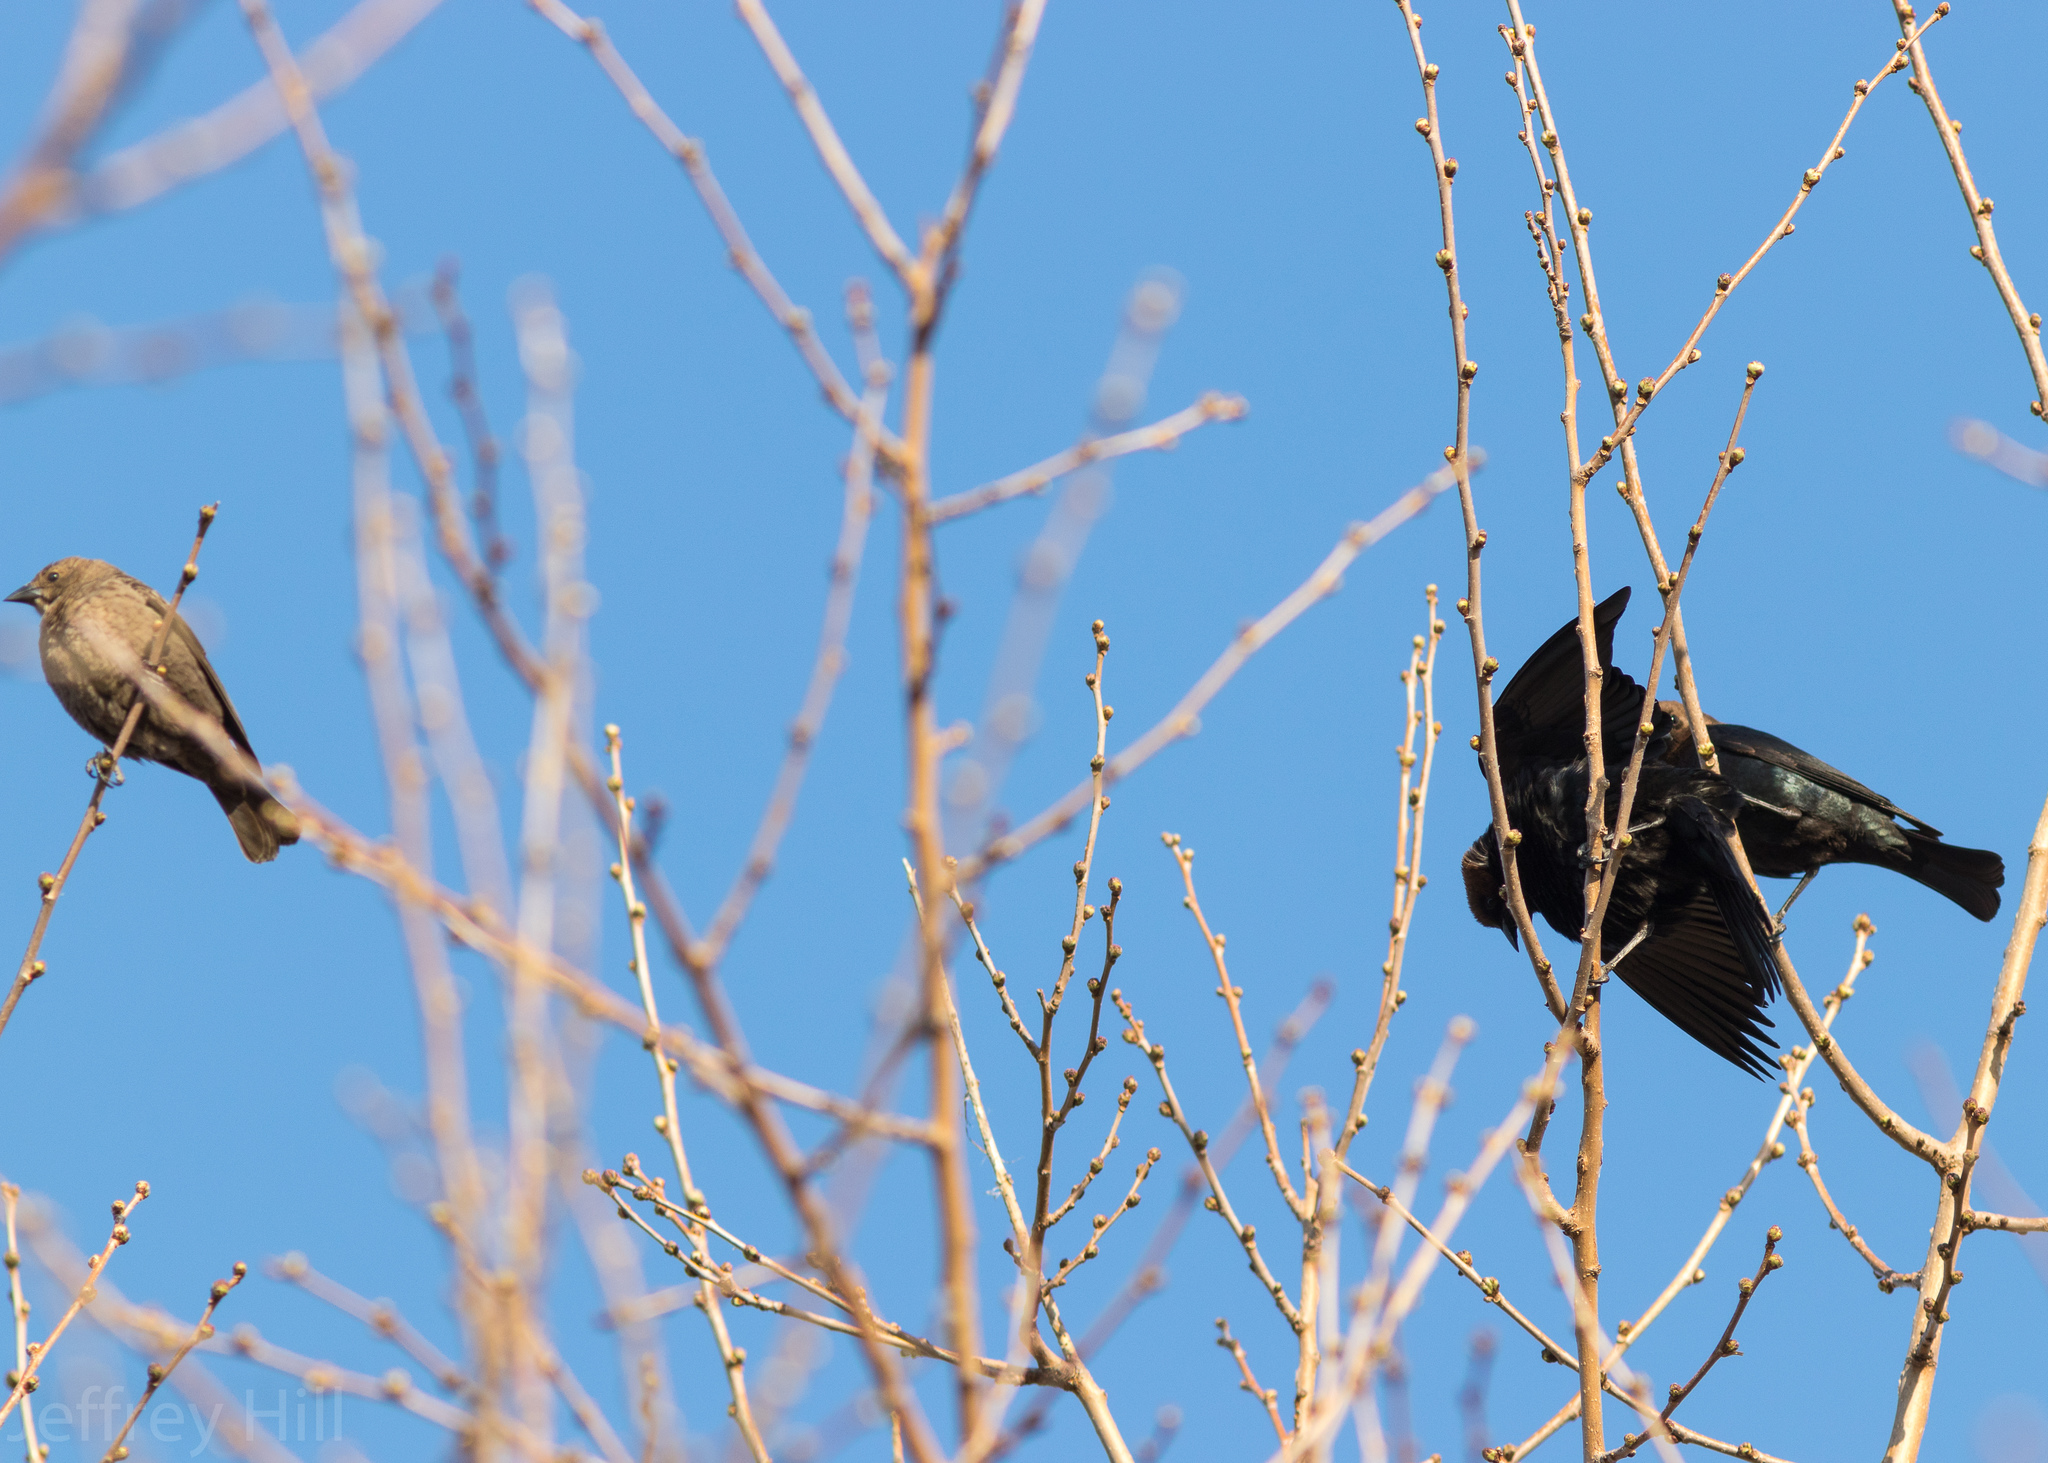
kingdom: Animalia
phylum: Chordata
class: Aves
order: Passeriformes
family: Icteridae
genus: Molothrus
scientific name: Molothrus ater
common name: Brown-headed cowbird
